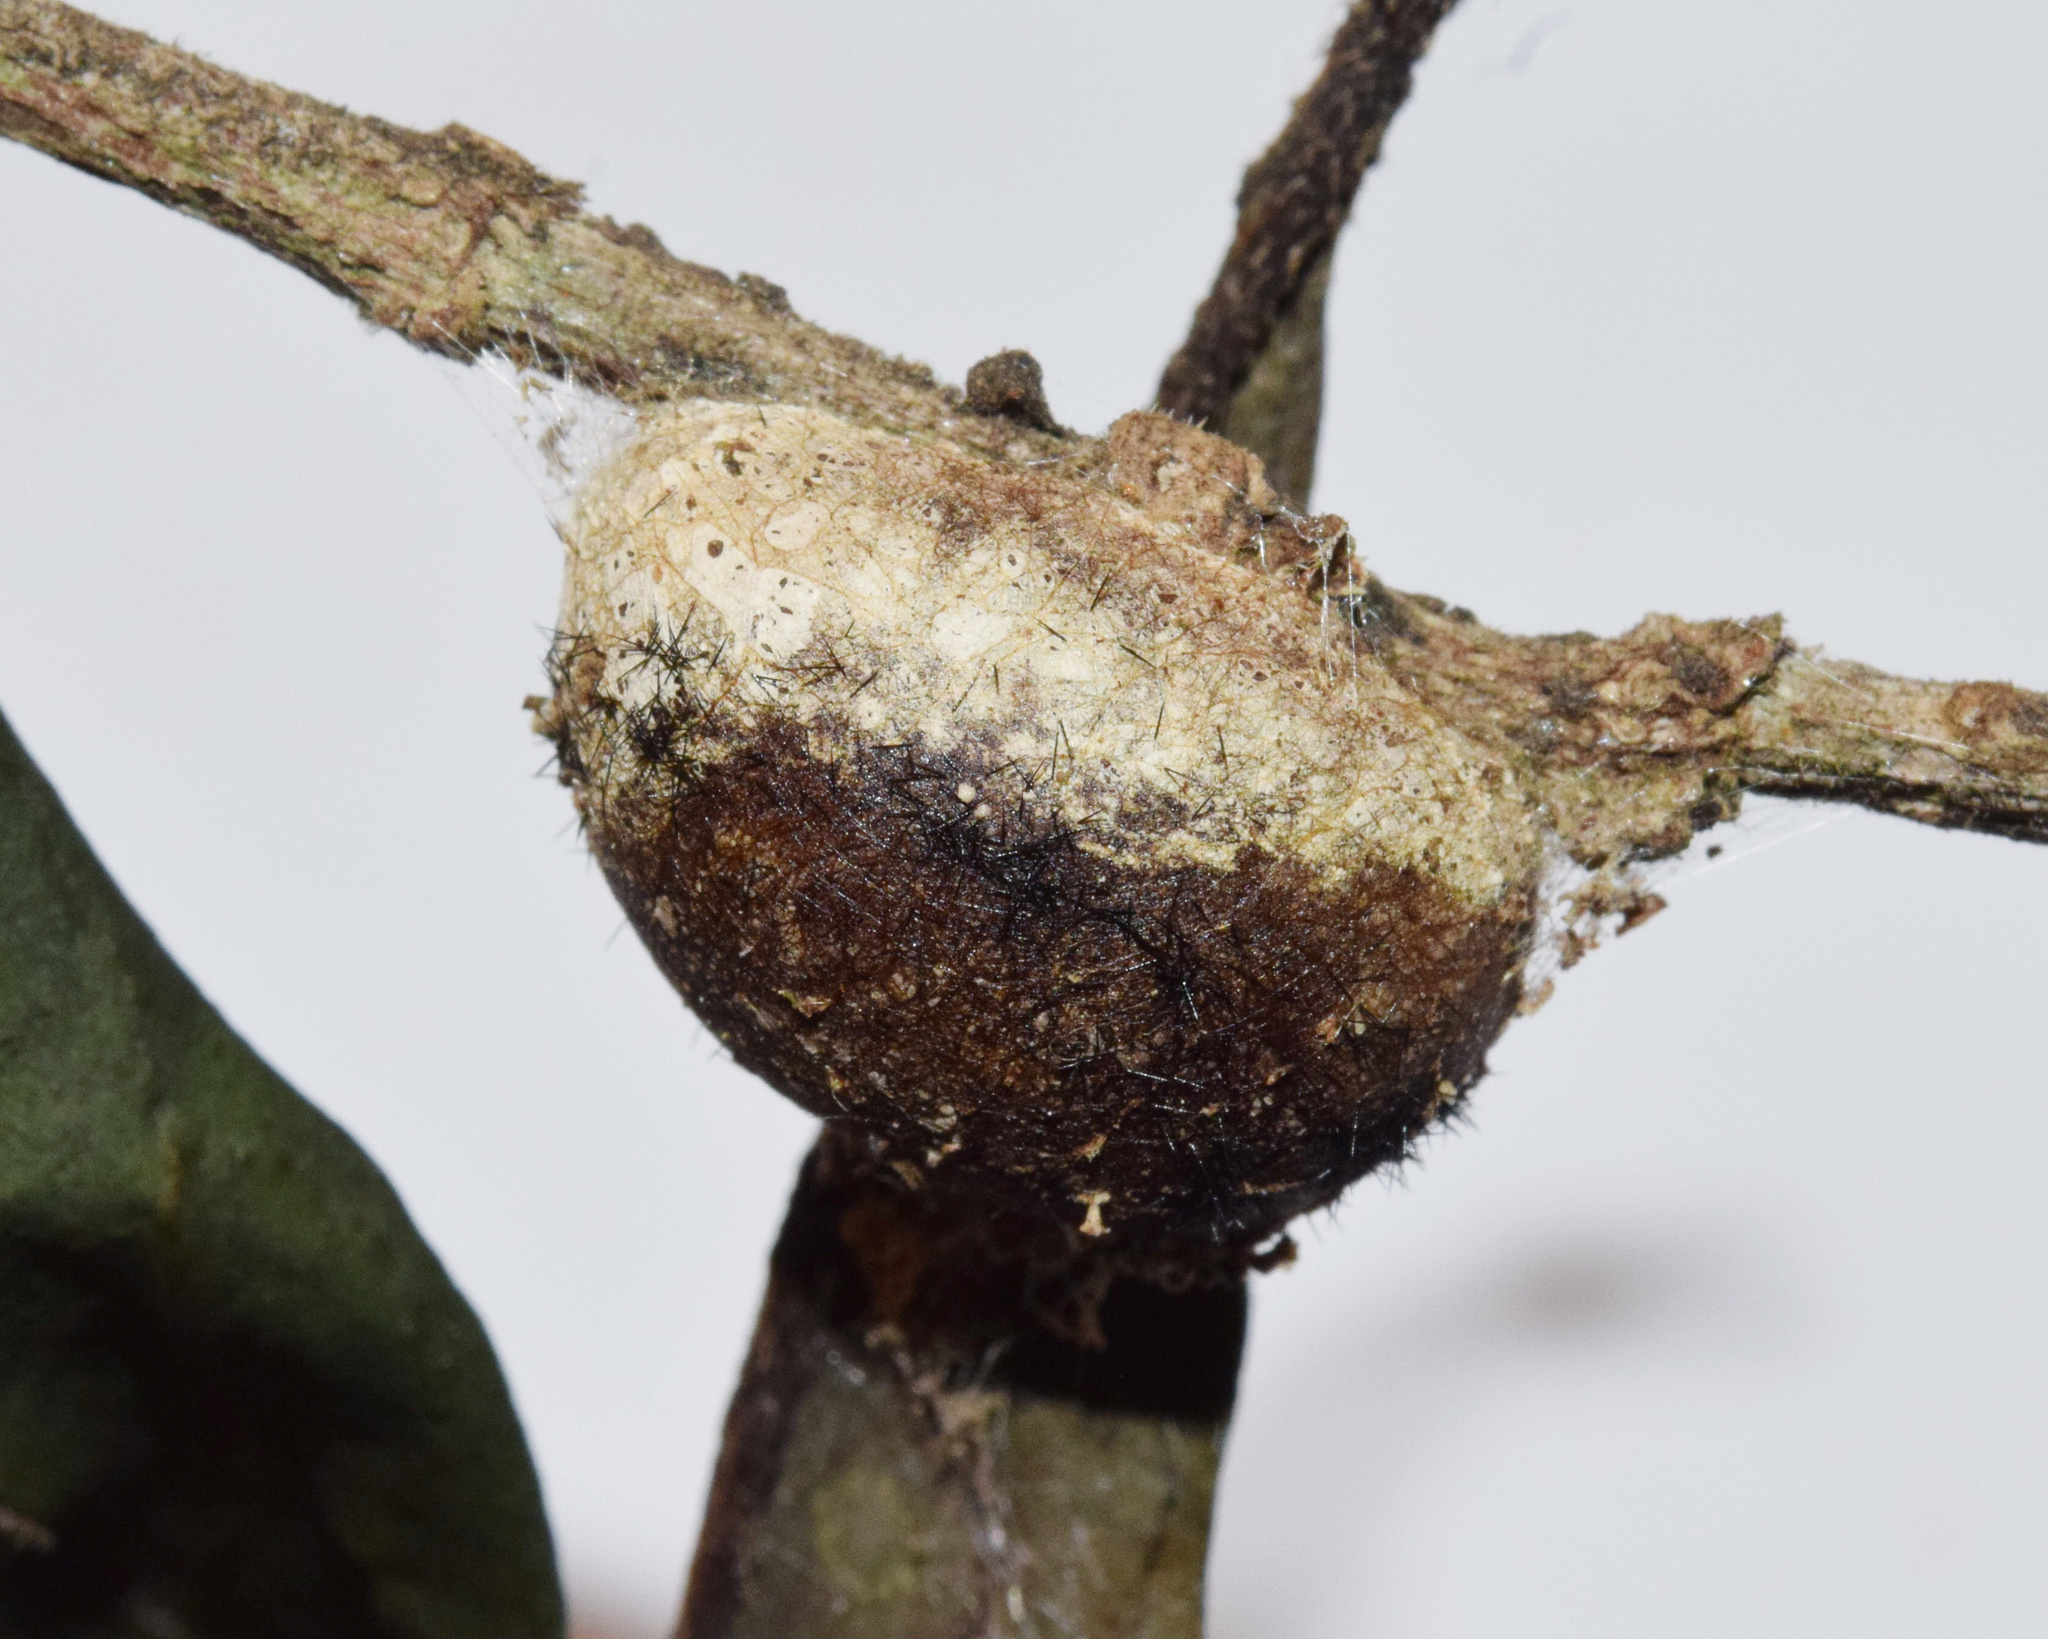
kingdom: Animalia
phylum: Arthropoda
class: Insecta
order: Lepidoptera
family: Limacodidae
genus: Parasa
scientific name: Parasa vivida
